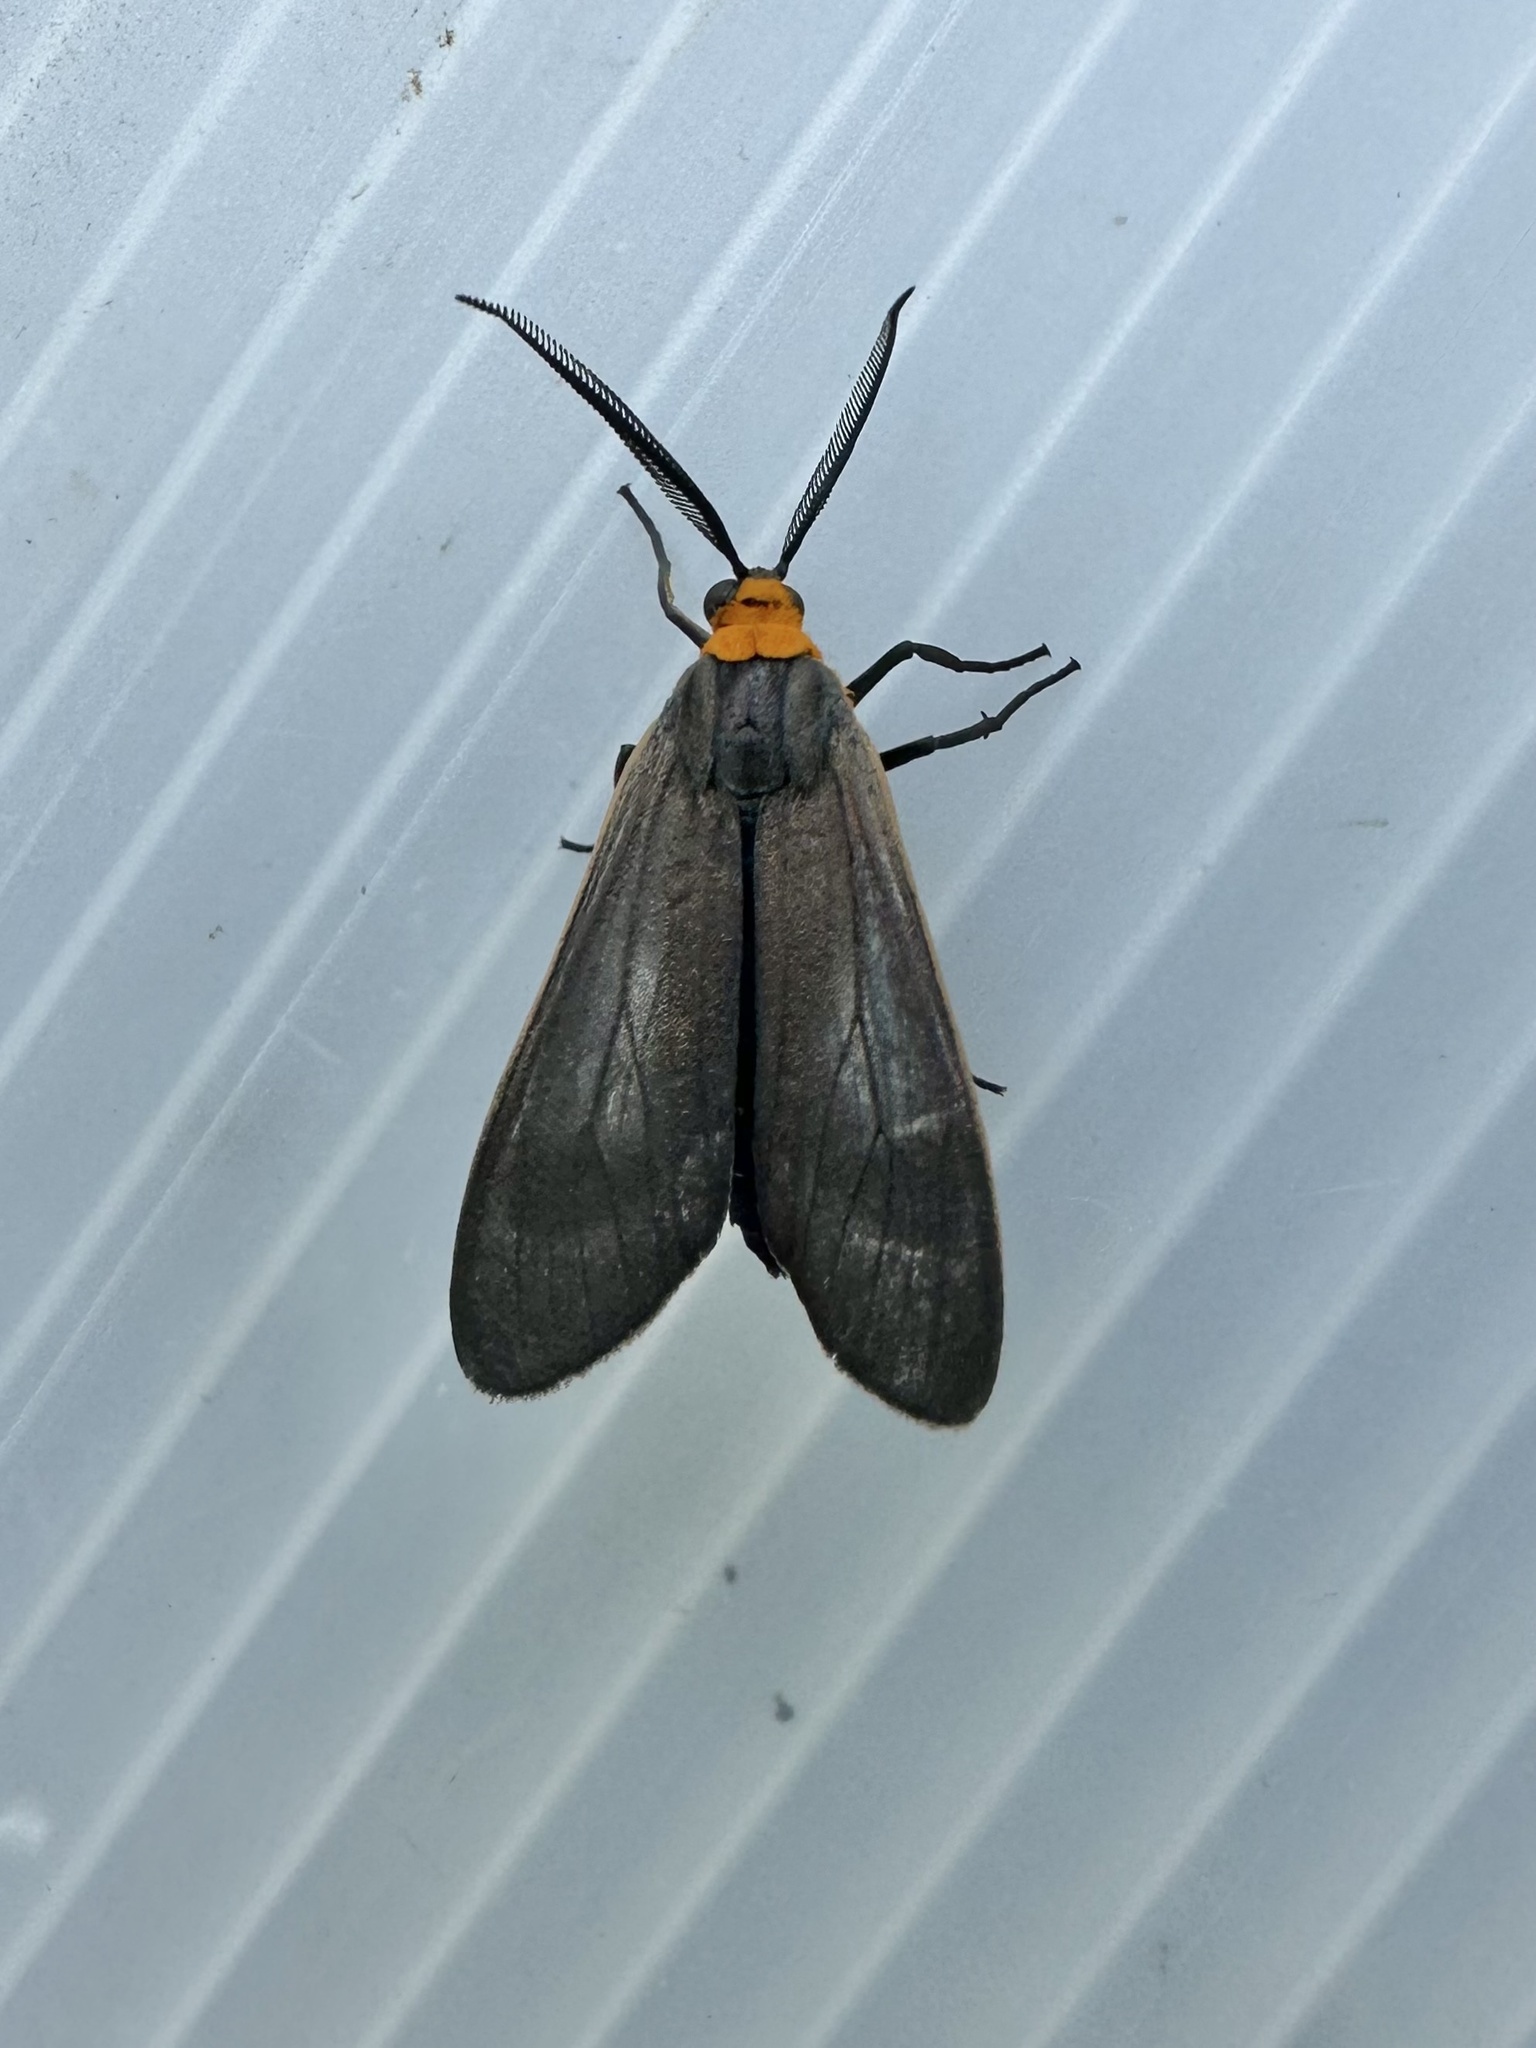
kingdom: Animalia
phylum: Arthropoda
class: Insecta
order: Lepidoptera
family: Erebidae
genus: Cisseps
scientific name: Cisseps fulvicollis
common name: Yellow-collared scape moth
